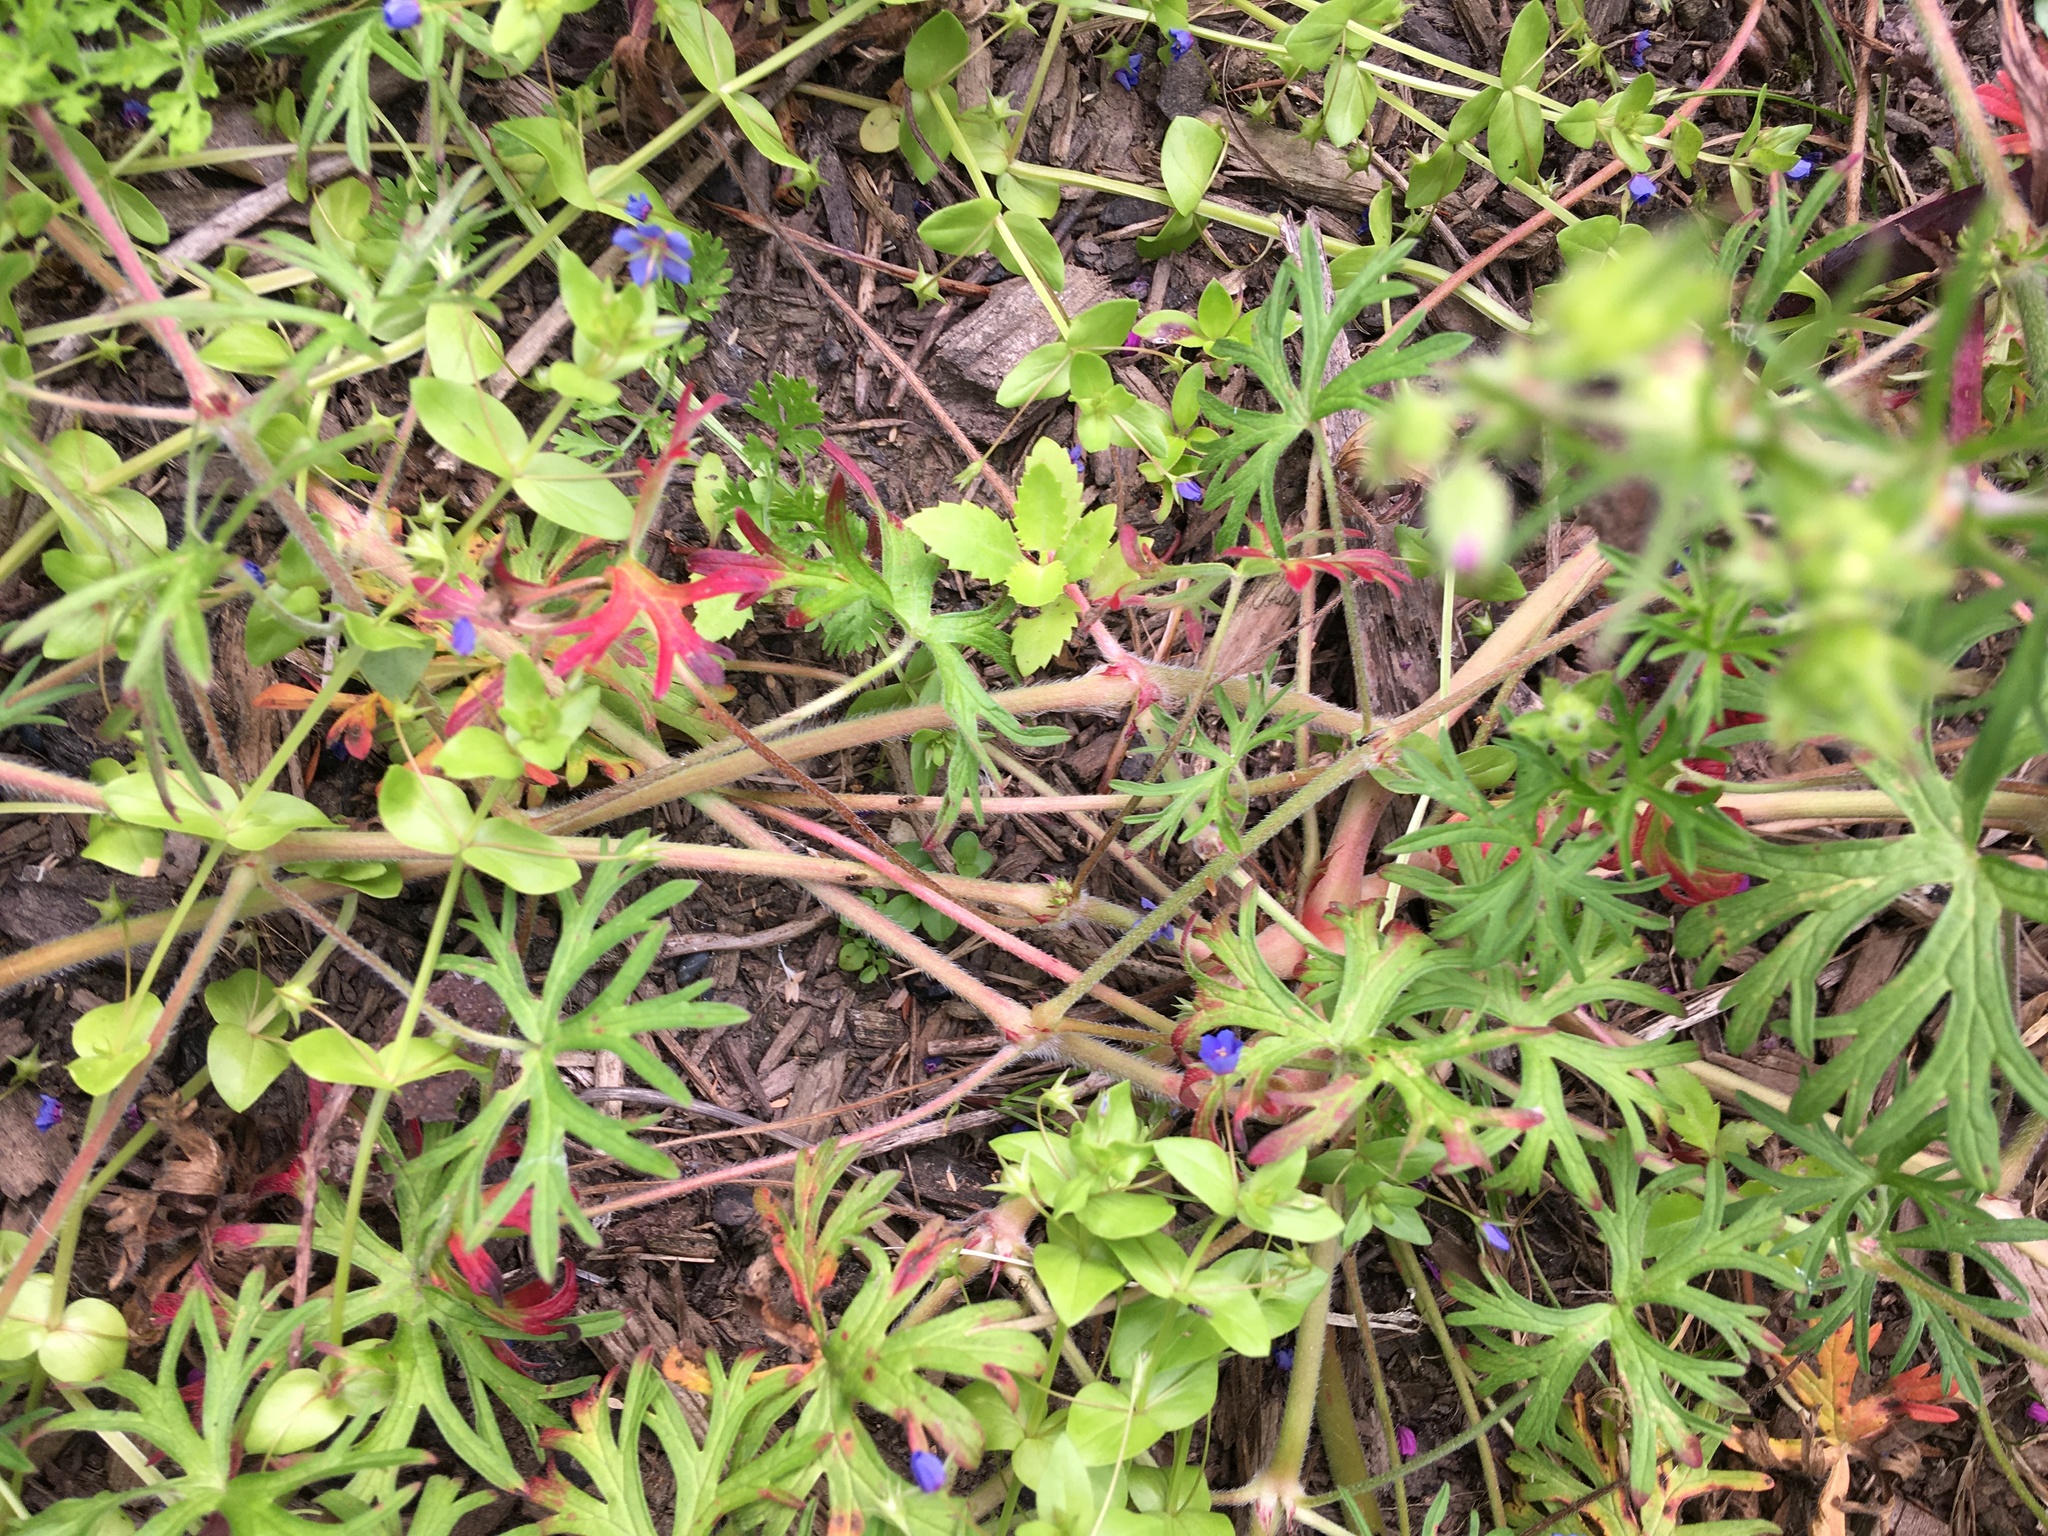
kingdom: Plantae
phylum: Tracheophyta
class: Magnoliopsida
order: Ericales
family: Primulaceae
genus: Lysimachia
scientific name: Lysimachia loeflingii
